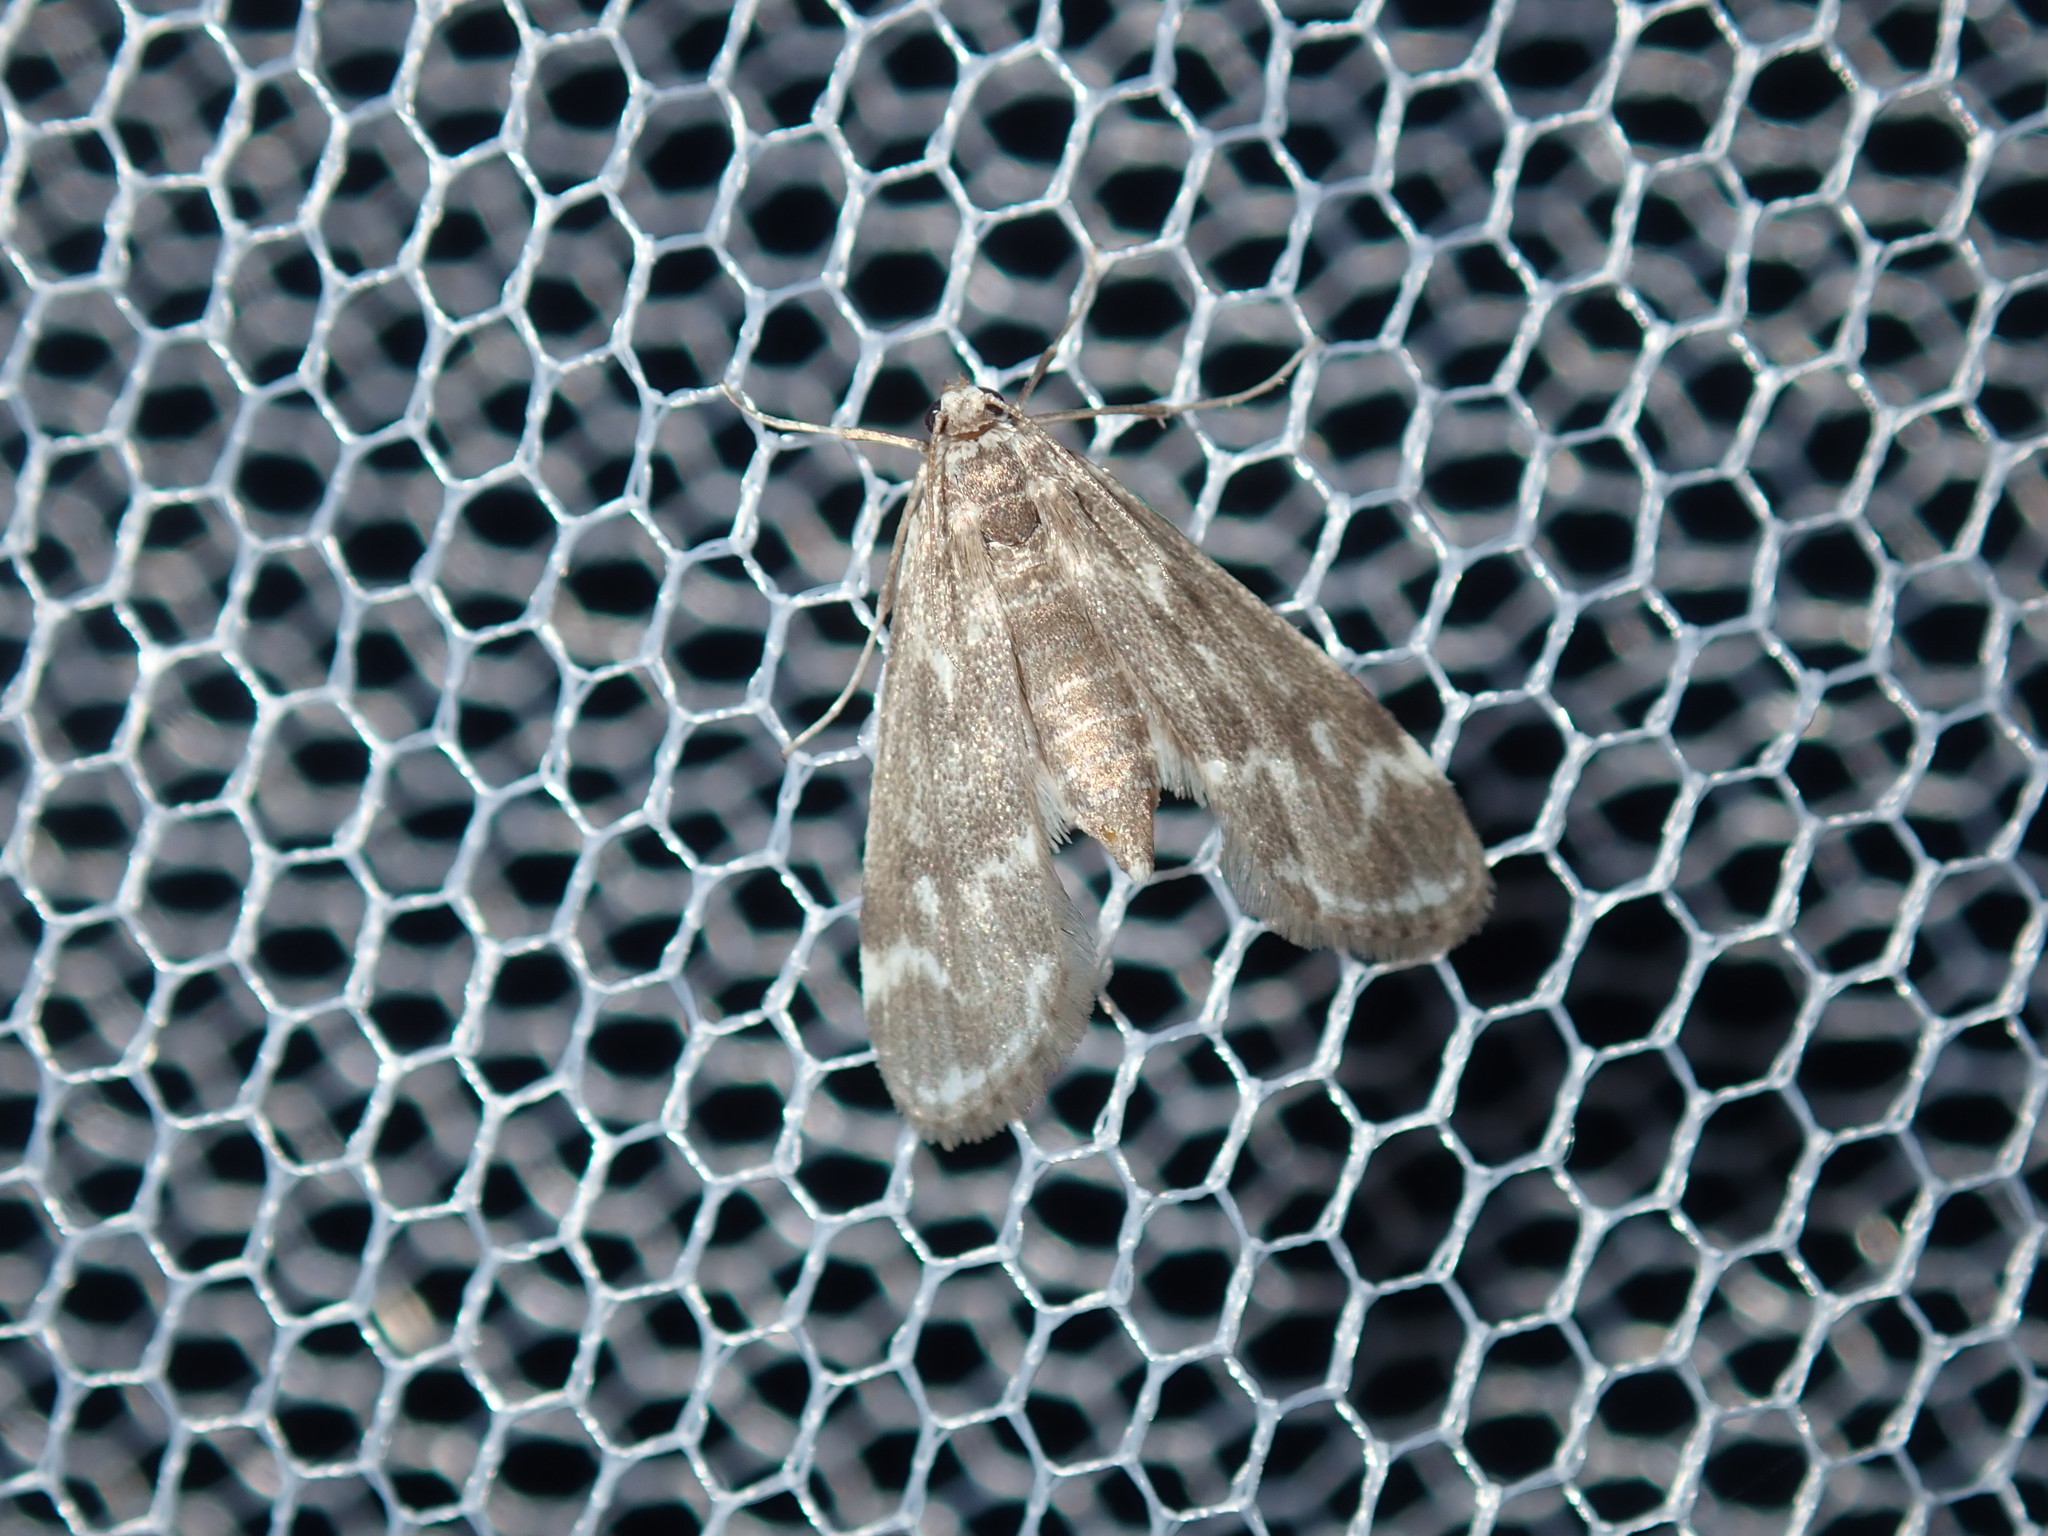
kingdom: Animalia
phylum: Arthropoda
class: Insecta
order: Lepidoptera
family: Crambidae
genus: Hygraula
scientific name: Hygraula nitens
